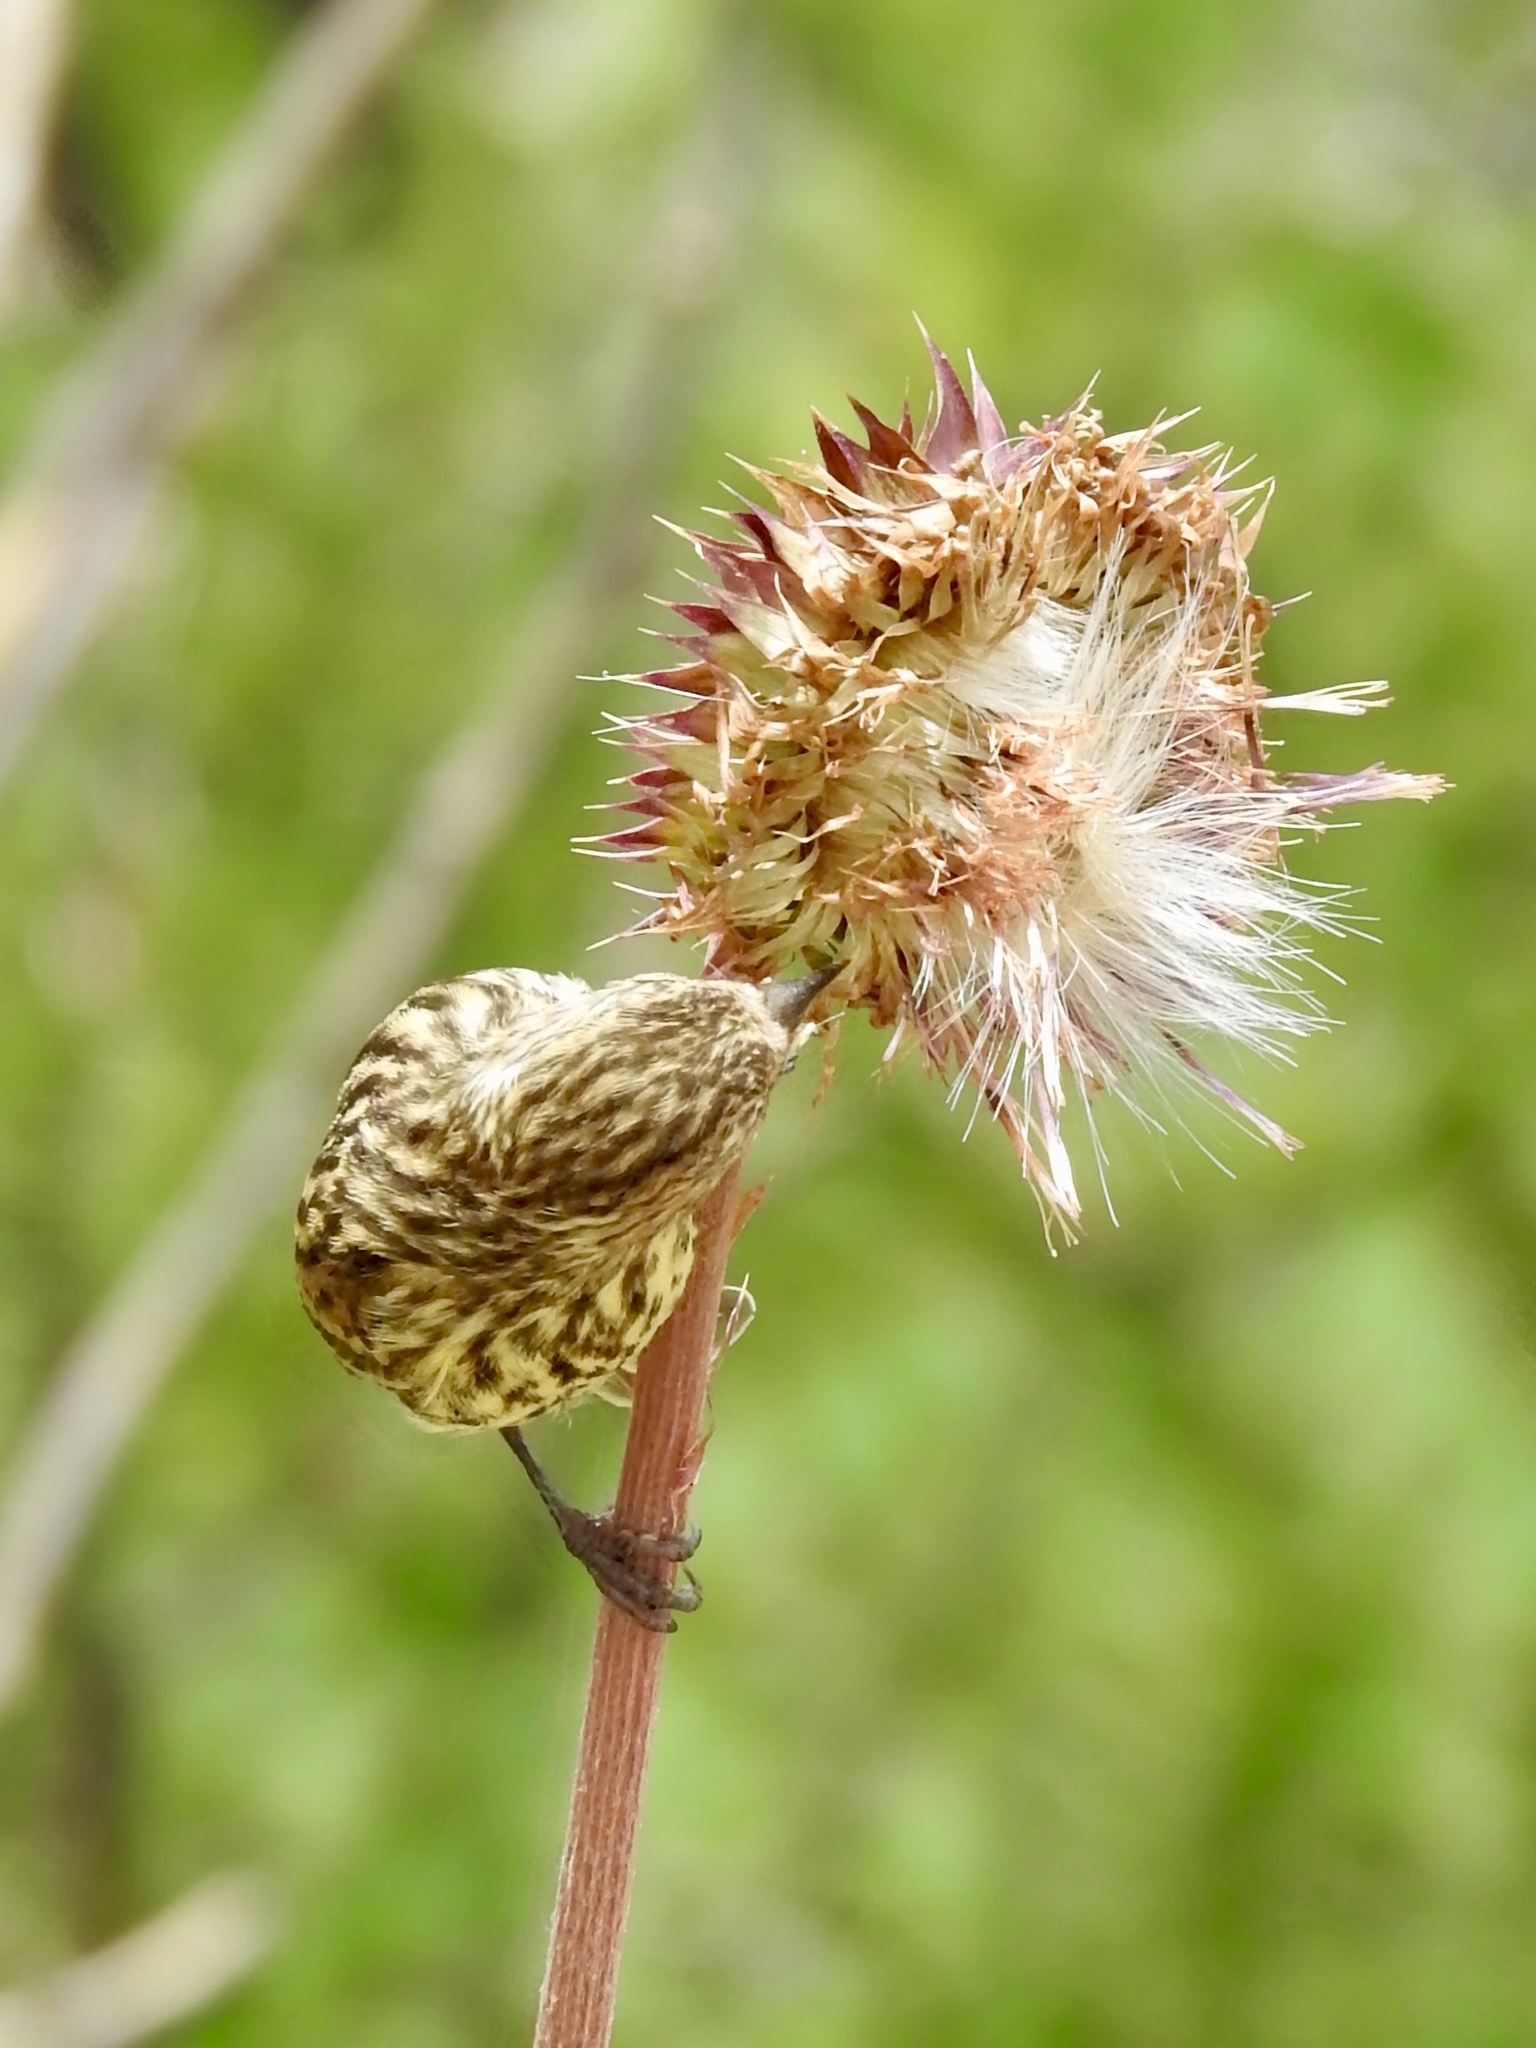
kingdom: Animalia
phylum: Chordata
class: Aves
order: Passeriformes
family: Fringillidae
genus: Spinus
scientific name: Spinus pinus
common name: Pine siskin
